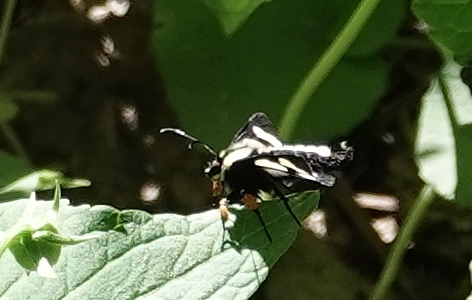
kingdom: Animalia
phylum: Arthropoda
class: Insecta
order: Lepidoptera
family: Noctuidae
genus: Alypia
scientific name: Alypia octomaculata
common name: Eight-spotted forester
